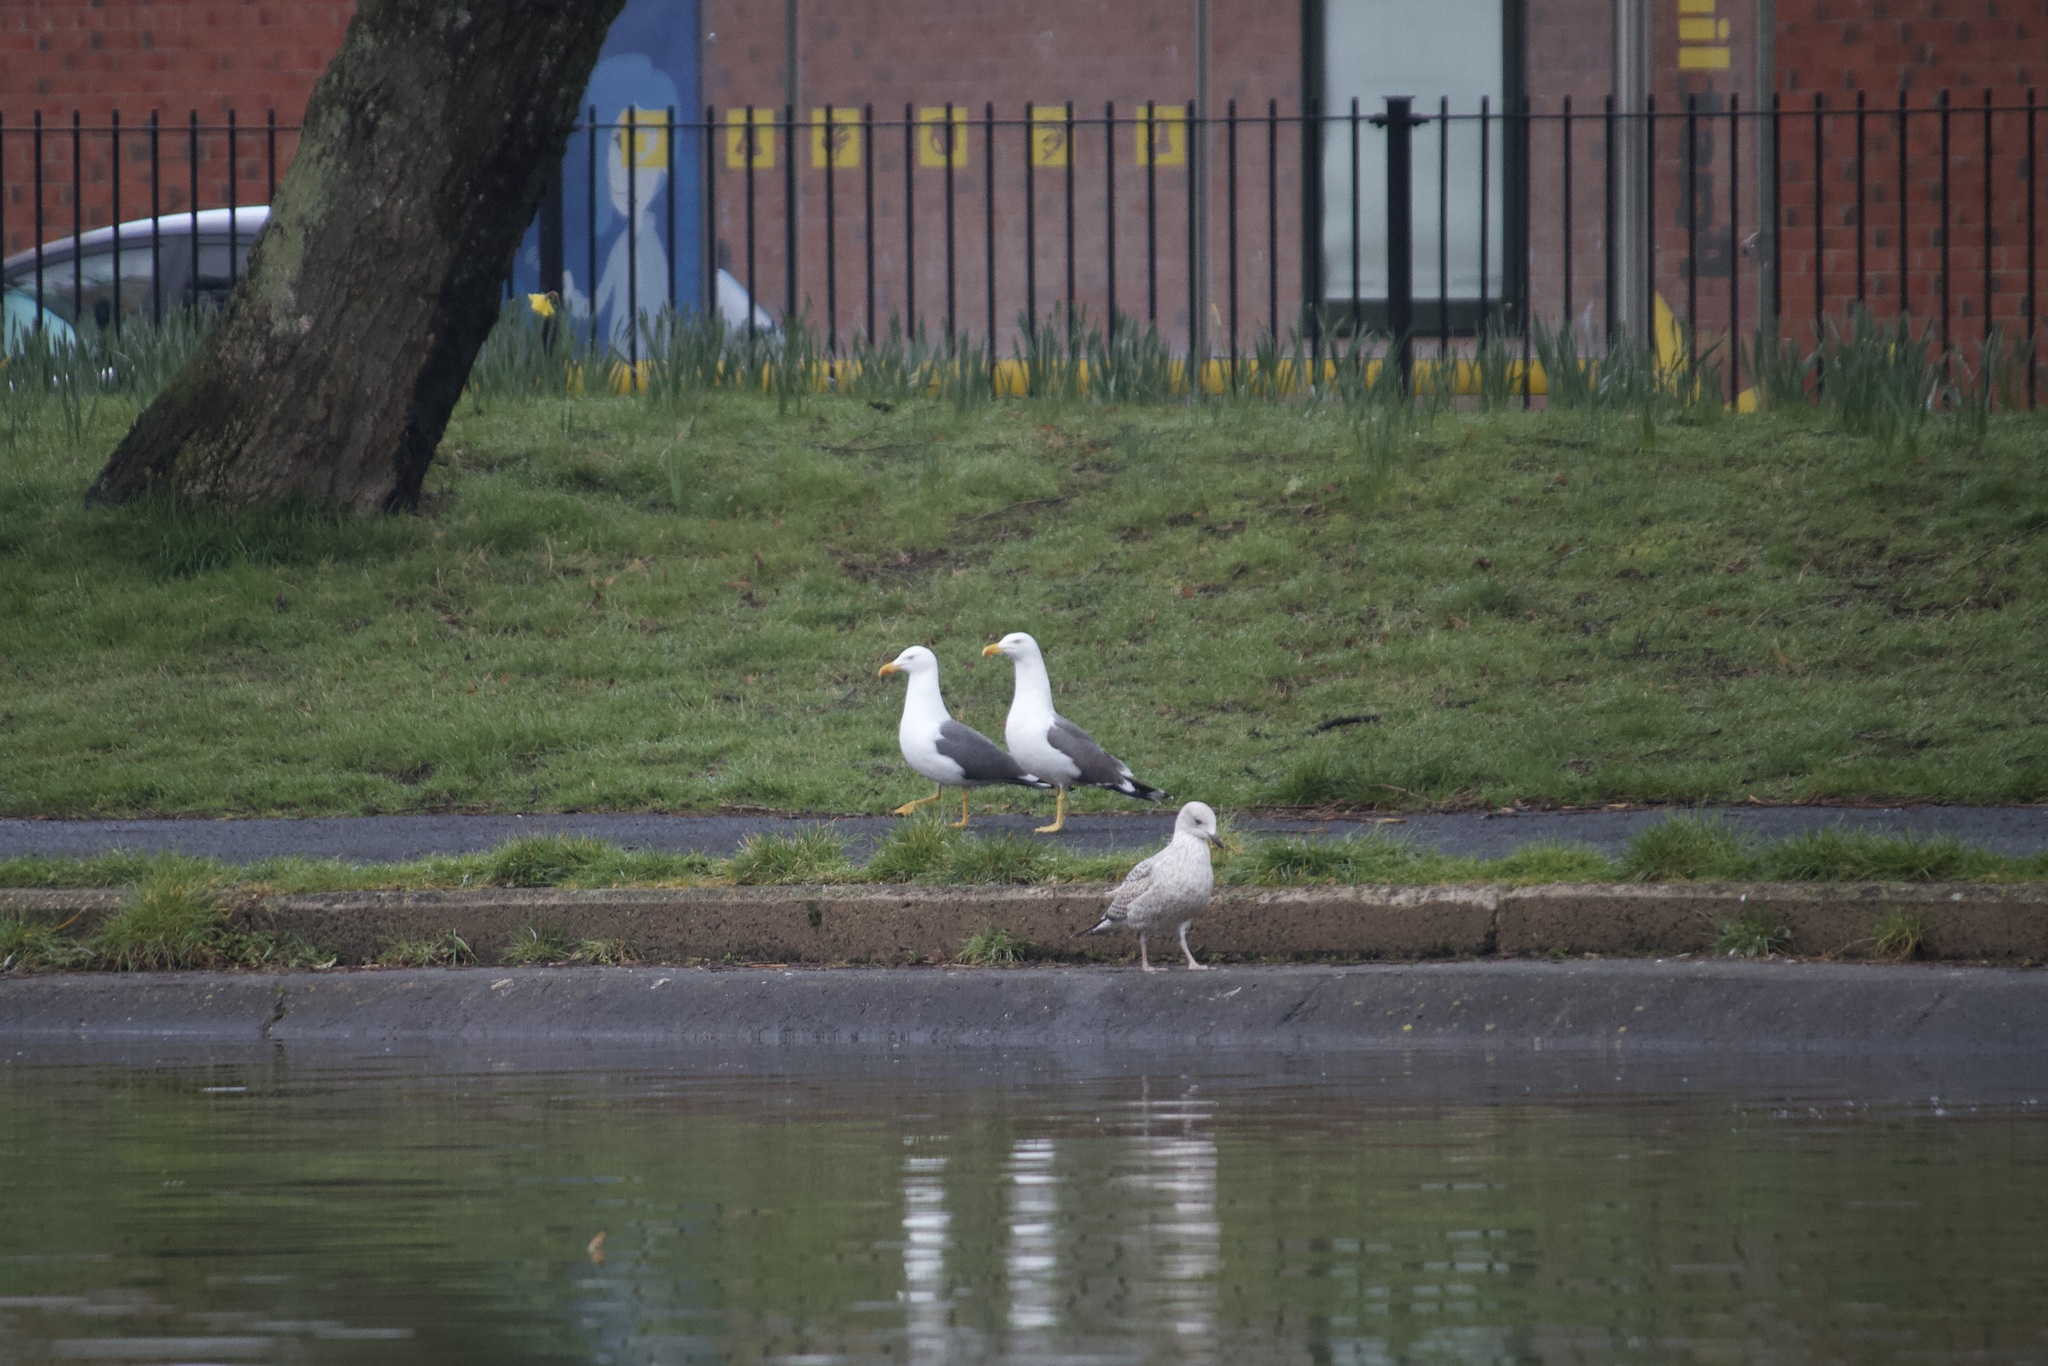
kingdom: Animalia
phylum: Chordata
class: Aves
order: Charadriiformes
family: Laridae
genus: Larus
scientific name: Larus argentatus
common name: Herring gull
